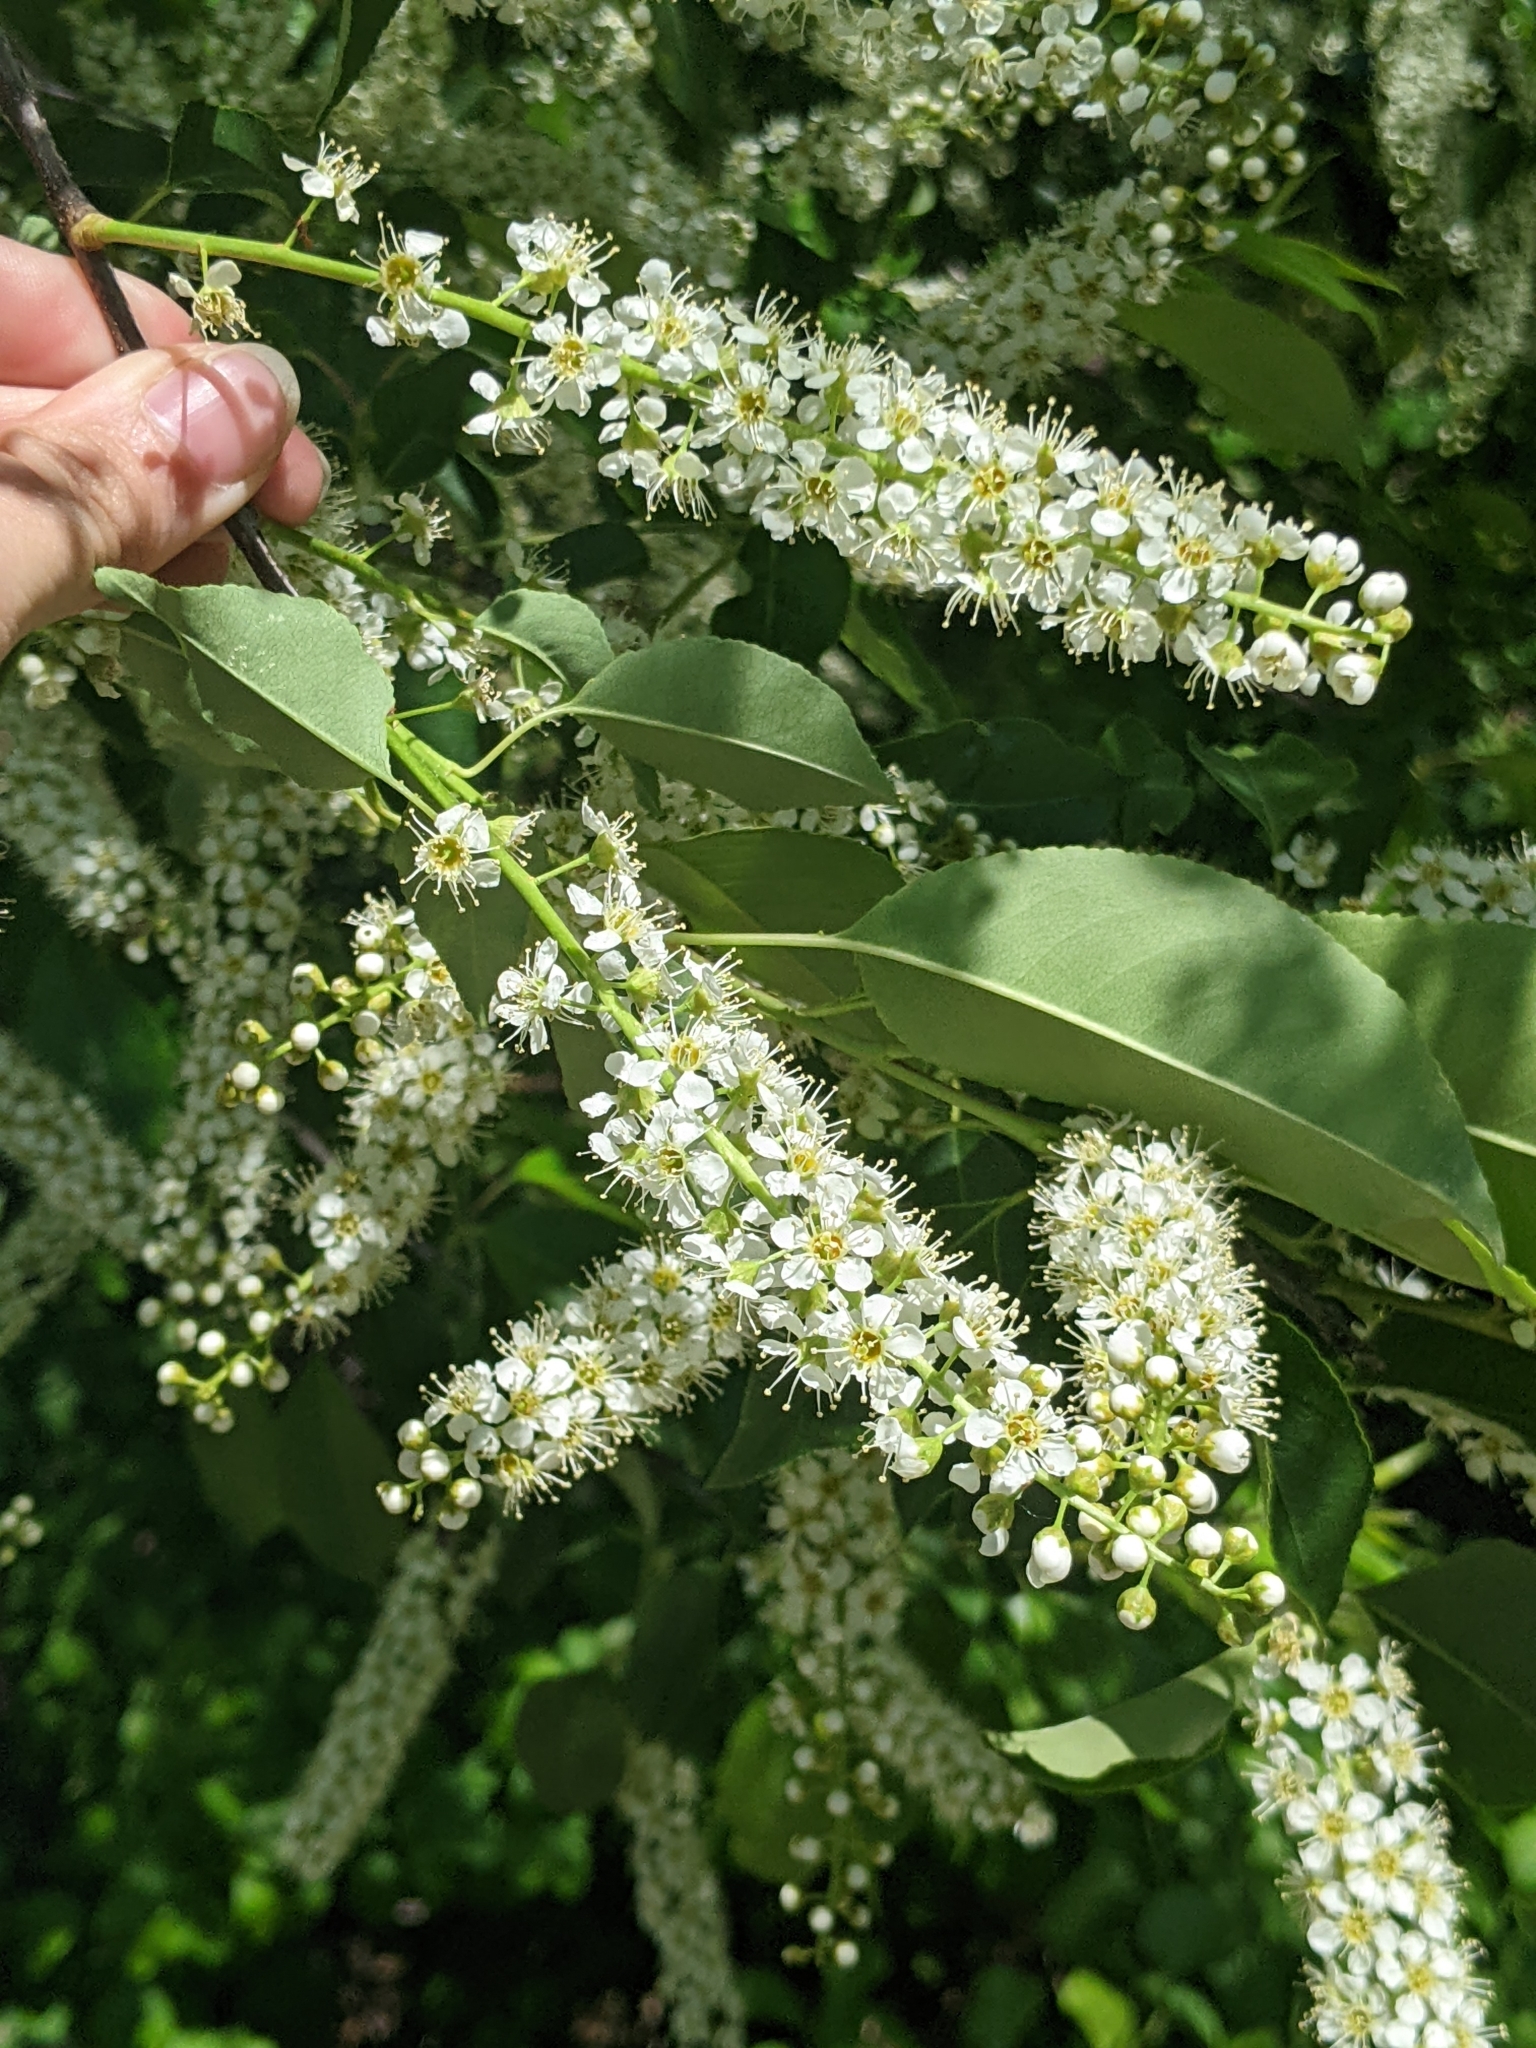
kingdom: Plantae
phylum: Tracheophyta
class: Magnoliopsida
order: Rosales
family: Rosaceae
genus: Prunus
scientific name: Prunus serotina
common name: Black cherry
